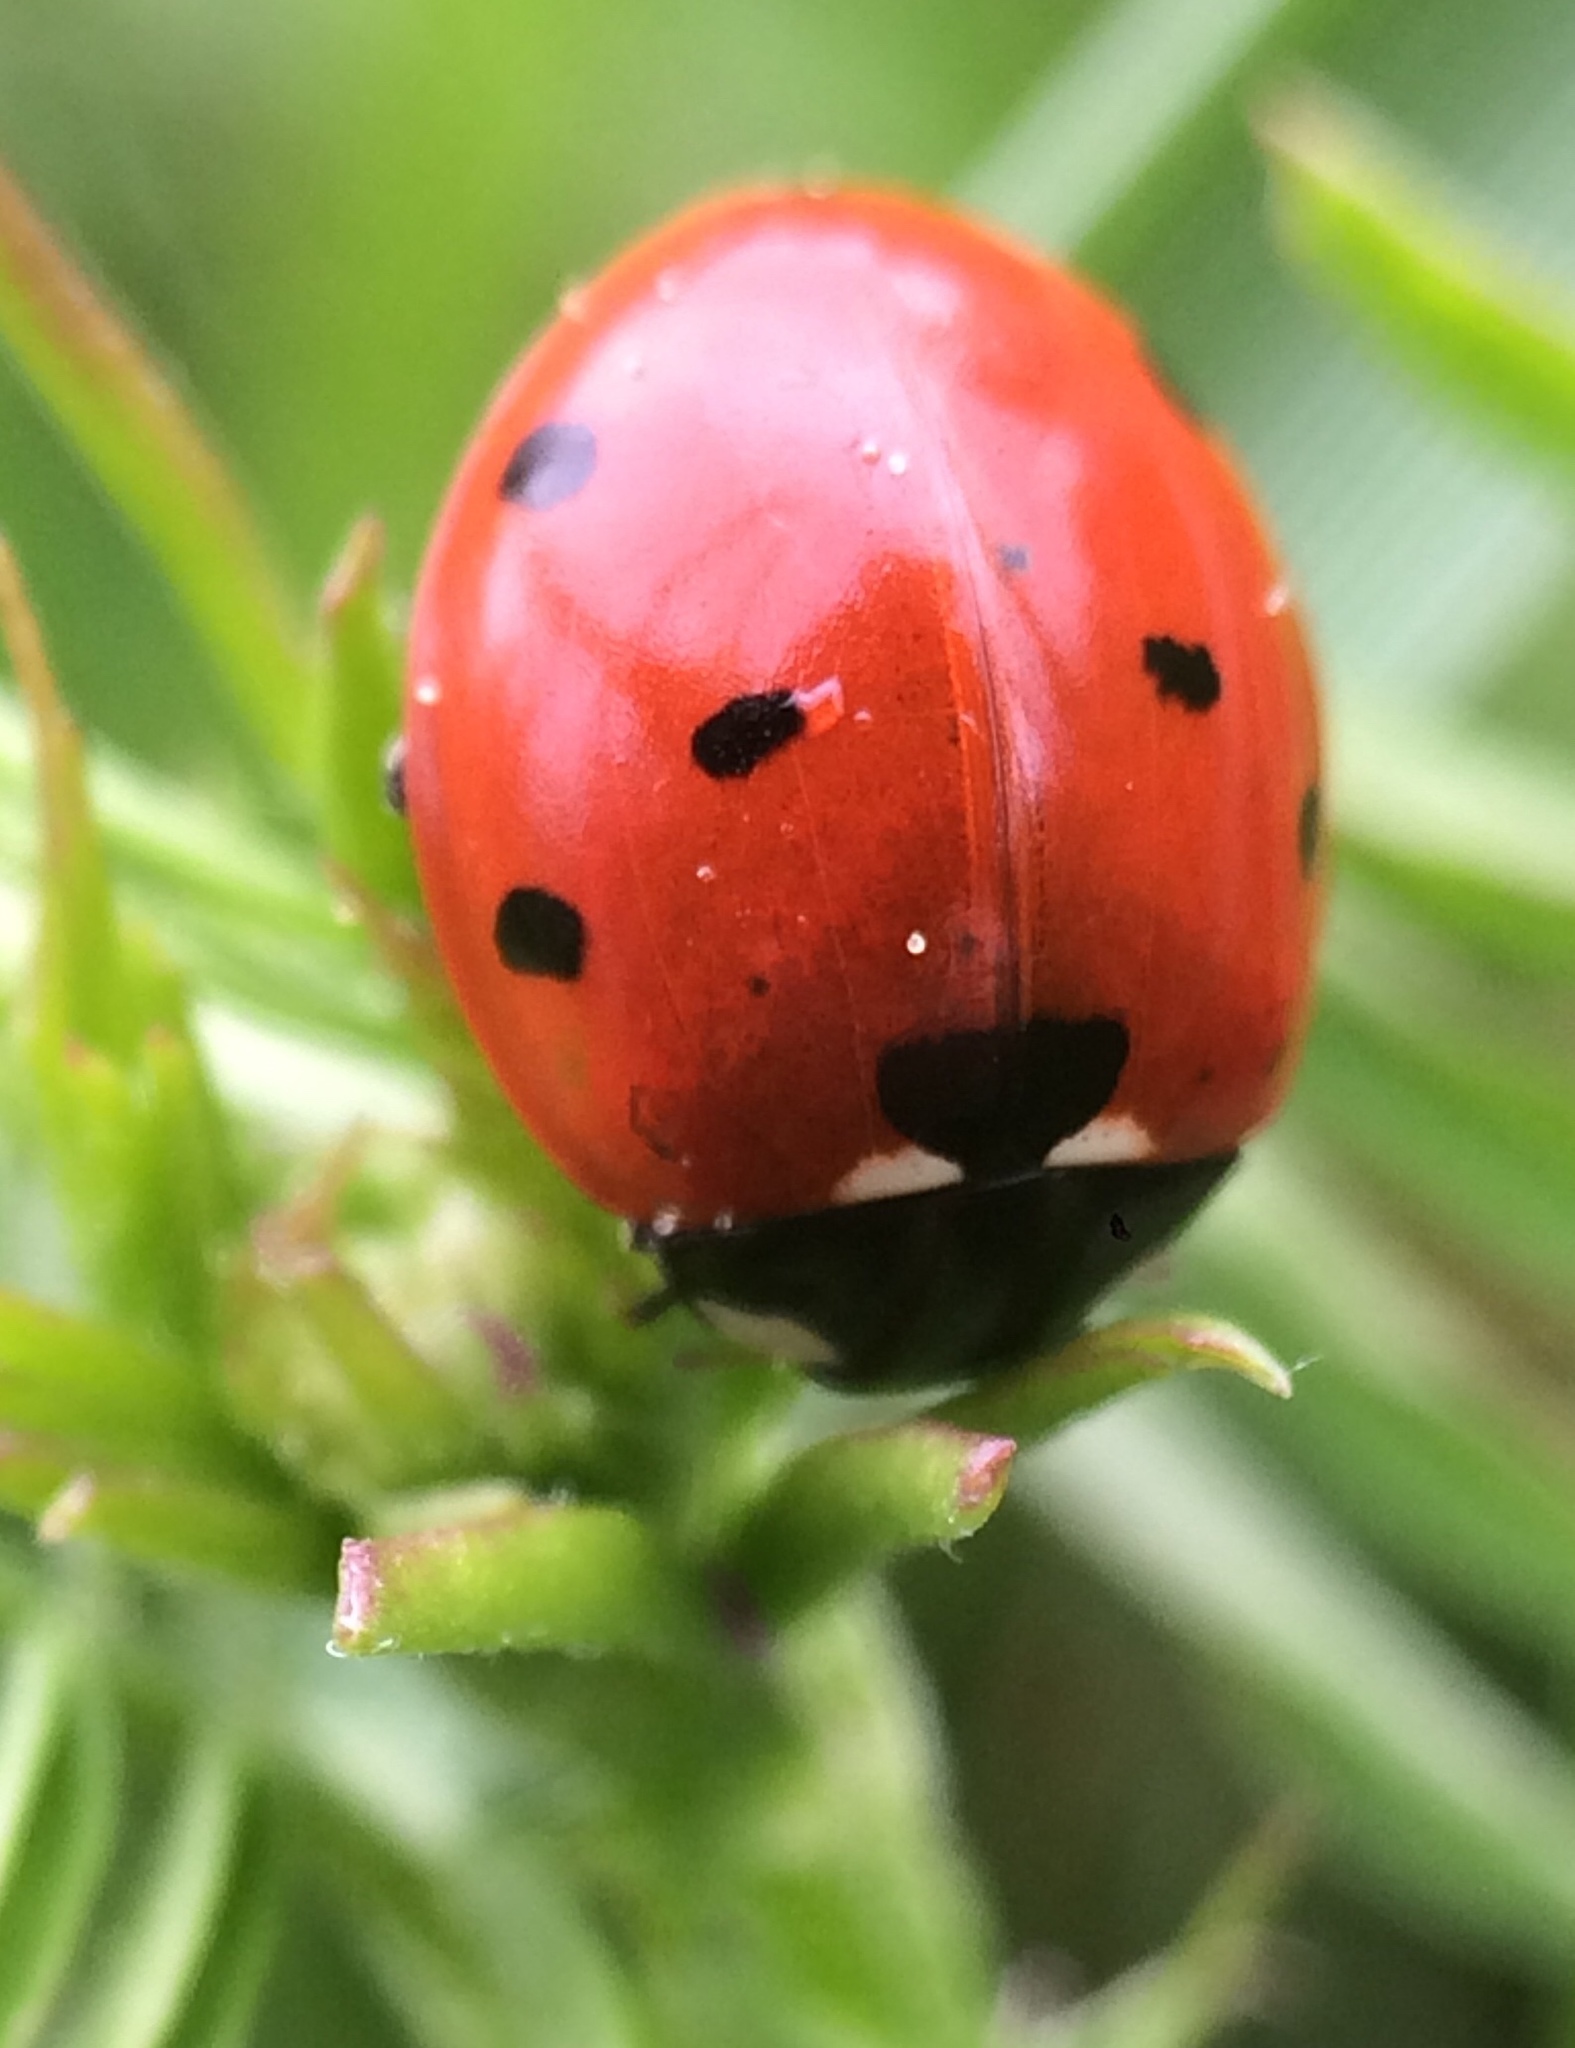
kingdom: Animalia
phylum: Arthropoda
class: Insecta
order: Coleoptera
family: Coccinellidae
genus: Coccinella
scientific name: Coccinella septempunctata
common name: Sevenspotted lady beetle
